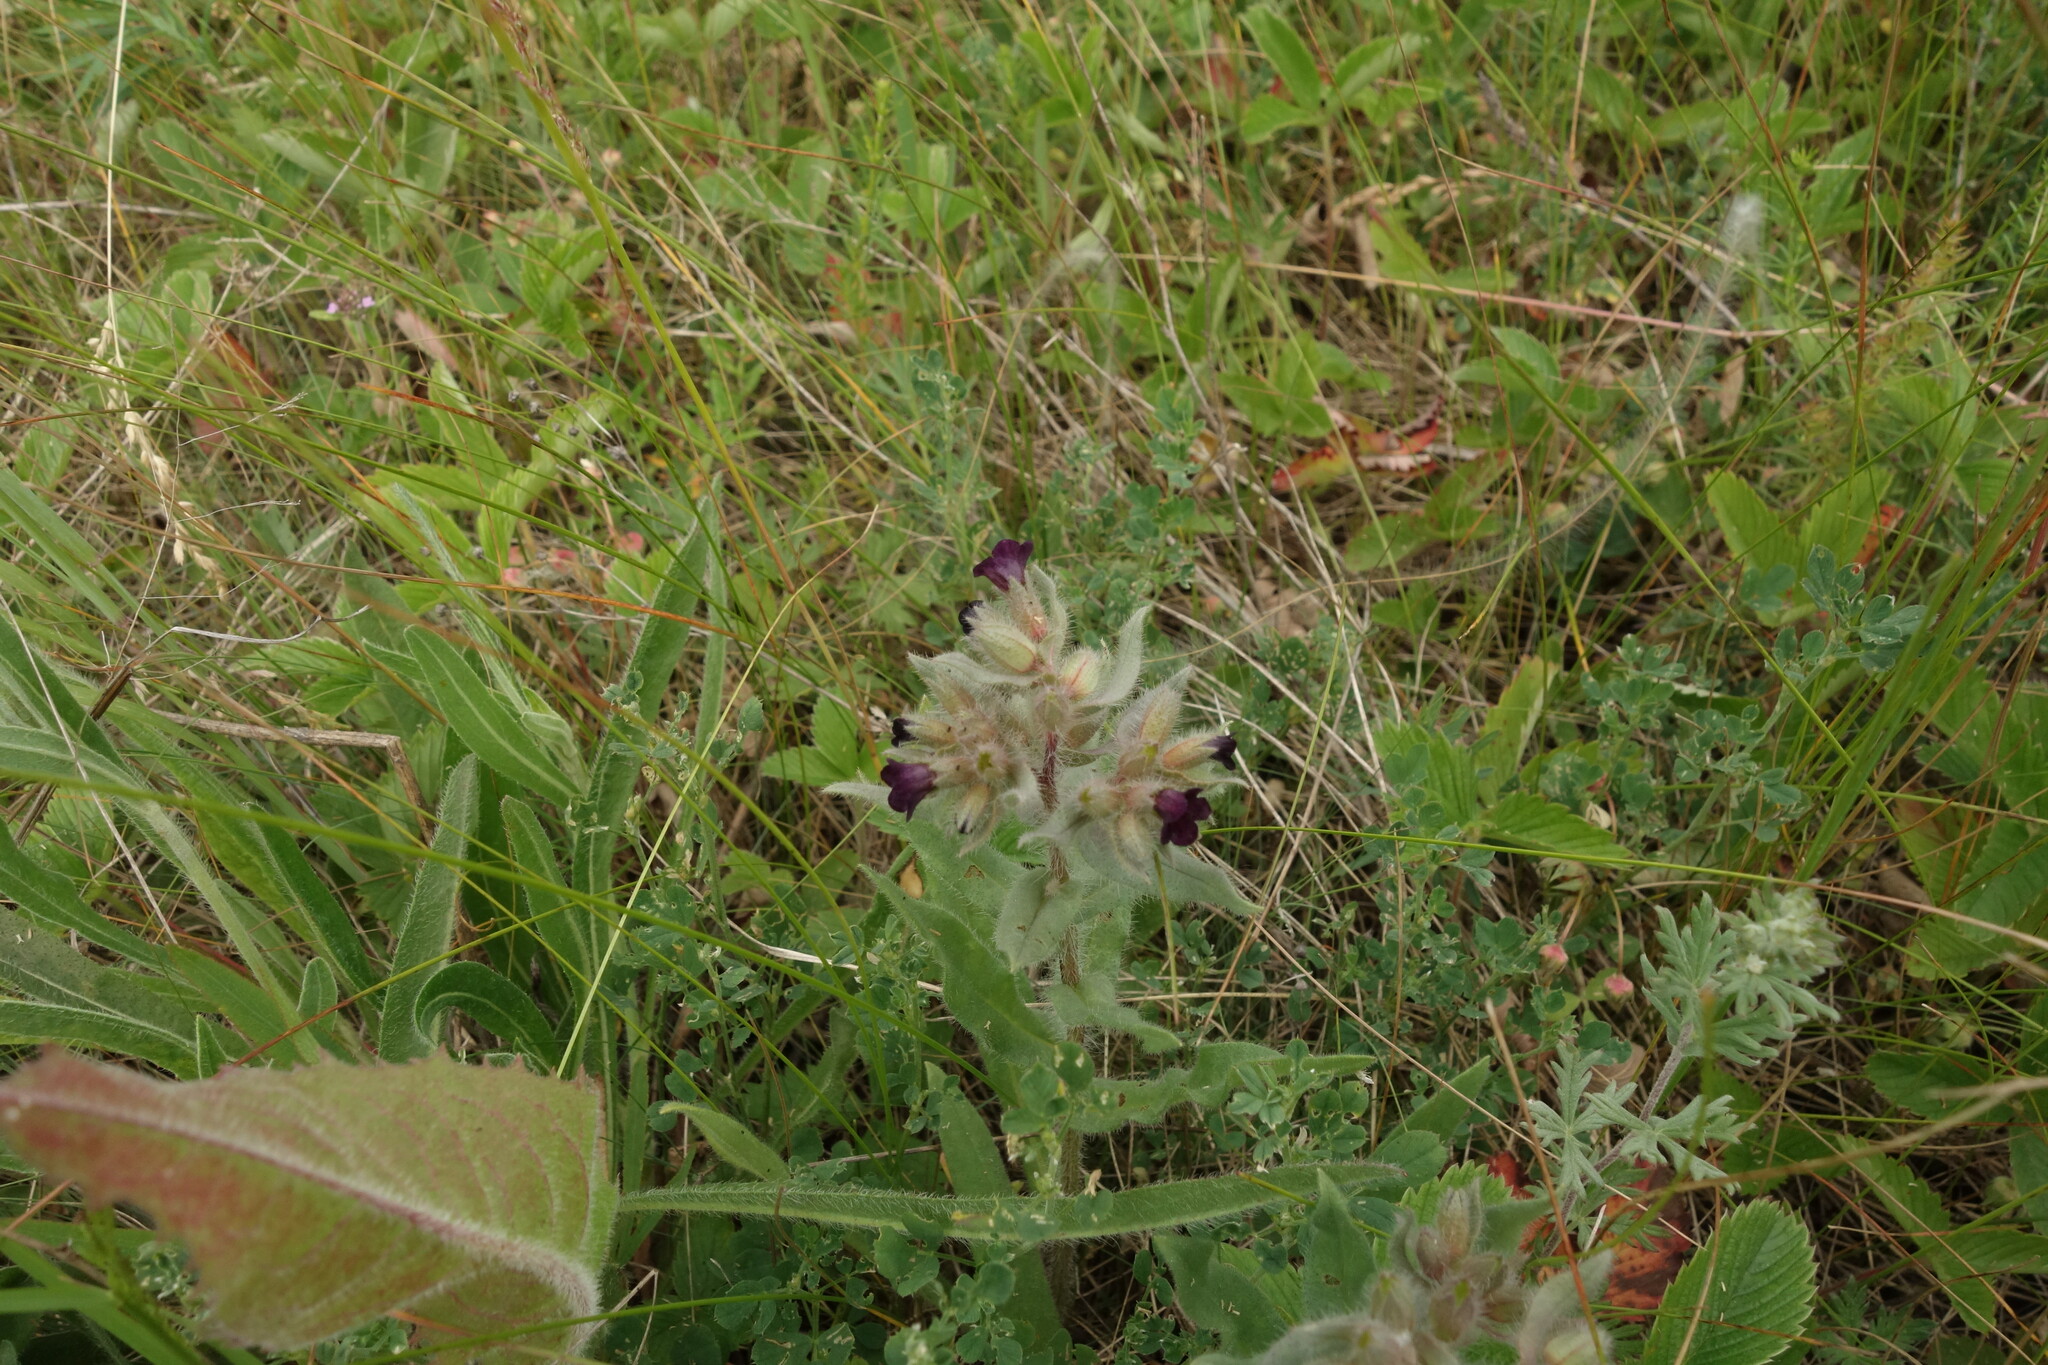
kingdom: Plantae
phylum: Tracheophyta
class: Magnoliopsida
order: Boraginales
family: Boraginaceae
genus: Nonea
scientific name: Nonea pulla
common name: Brown nonea
